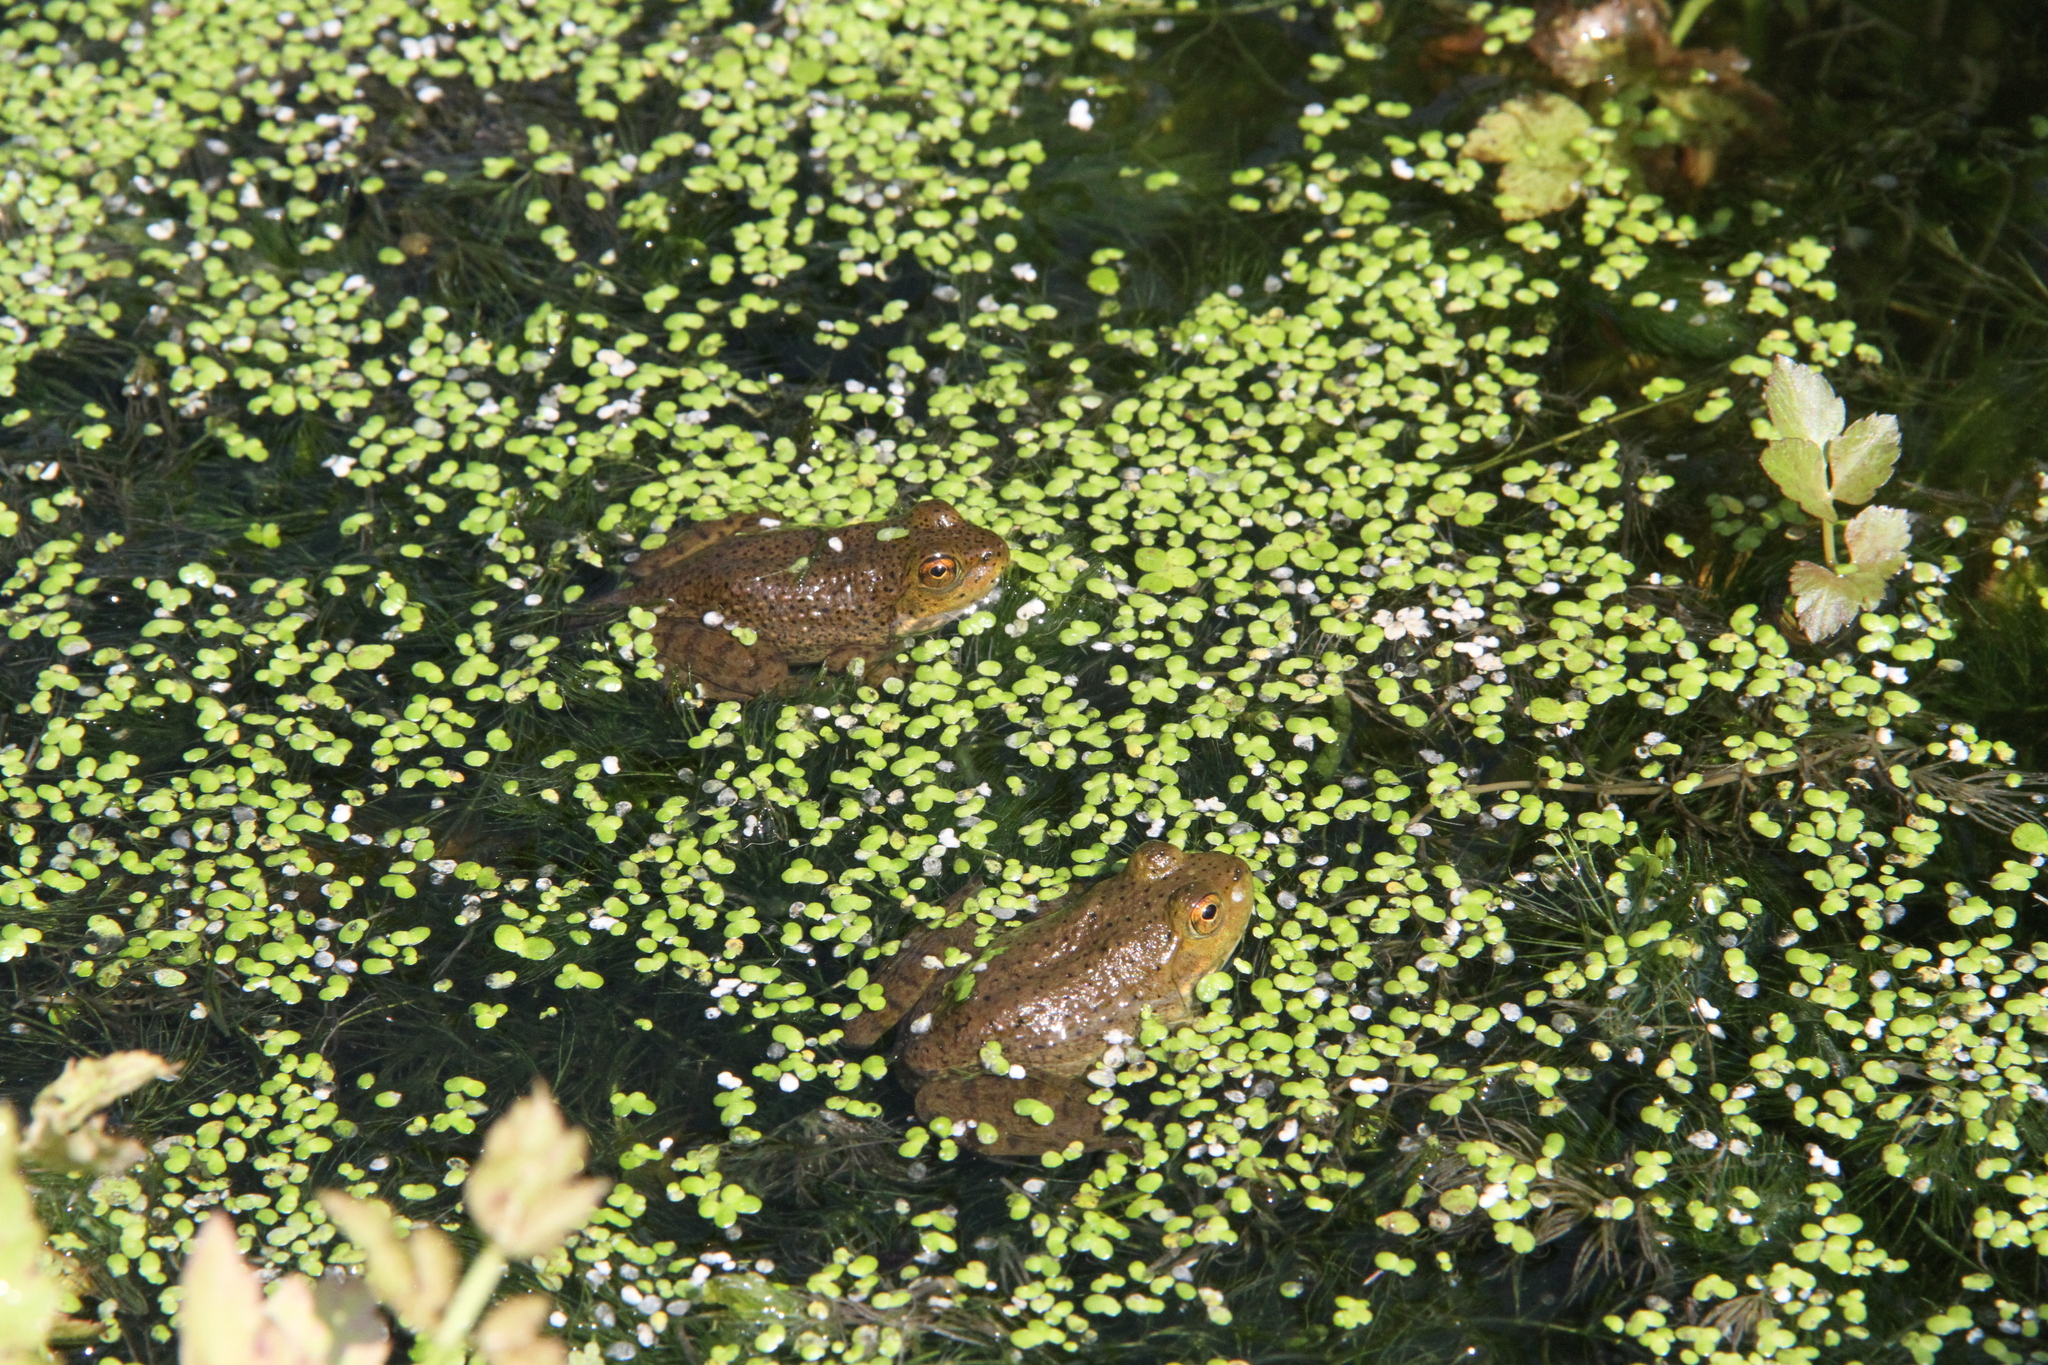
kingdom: Animalia
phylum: Chordata
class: Amphibia
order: Anura
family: Ranidae
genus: Lithobates
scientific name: Lithobates catesbeianus
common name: American bullfrog
